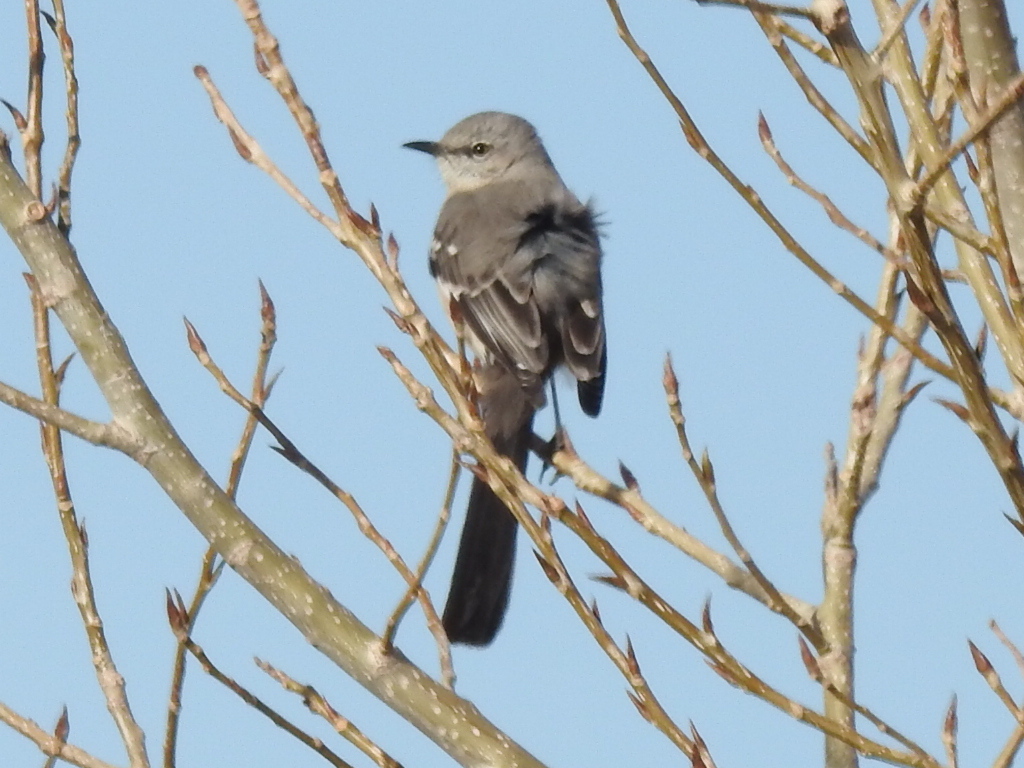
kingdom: Animalia
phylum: Chordata
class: Aves
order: Passeriformes
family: Mimidae
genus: Mimus
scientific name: Mimus polyglottos
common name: Northern mockingbird
